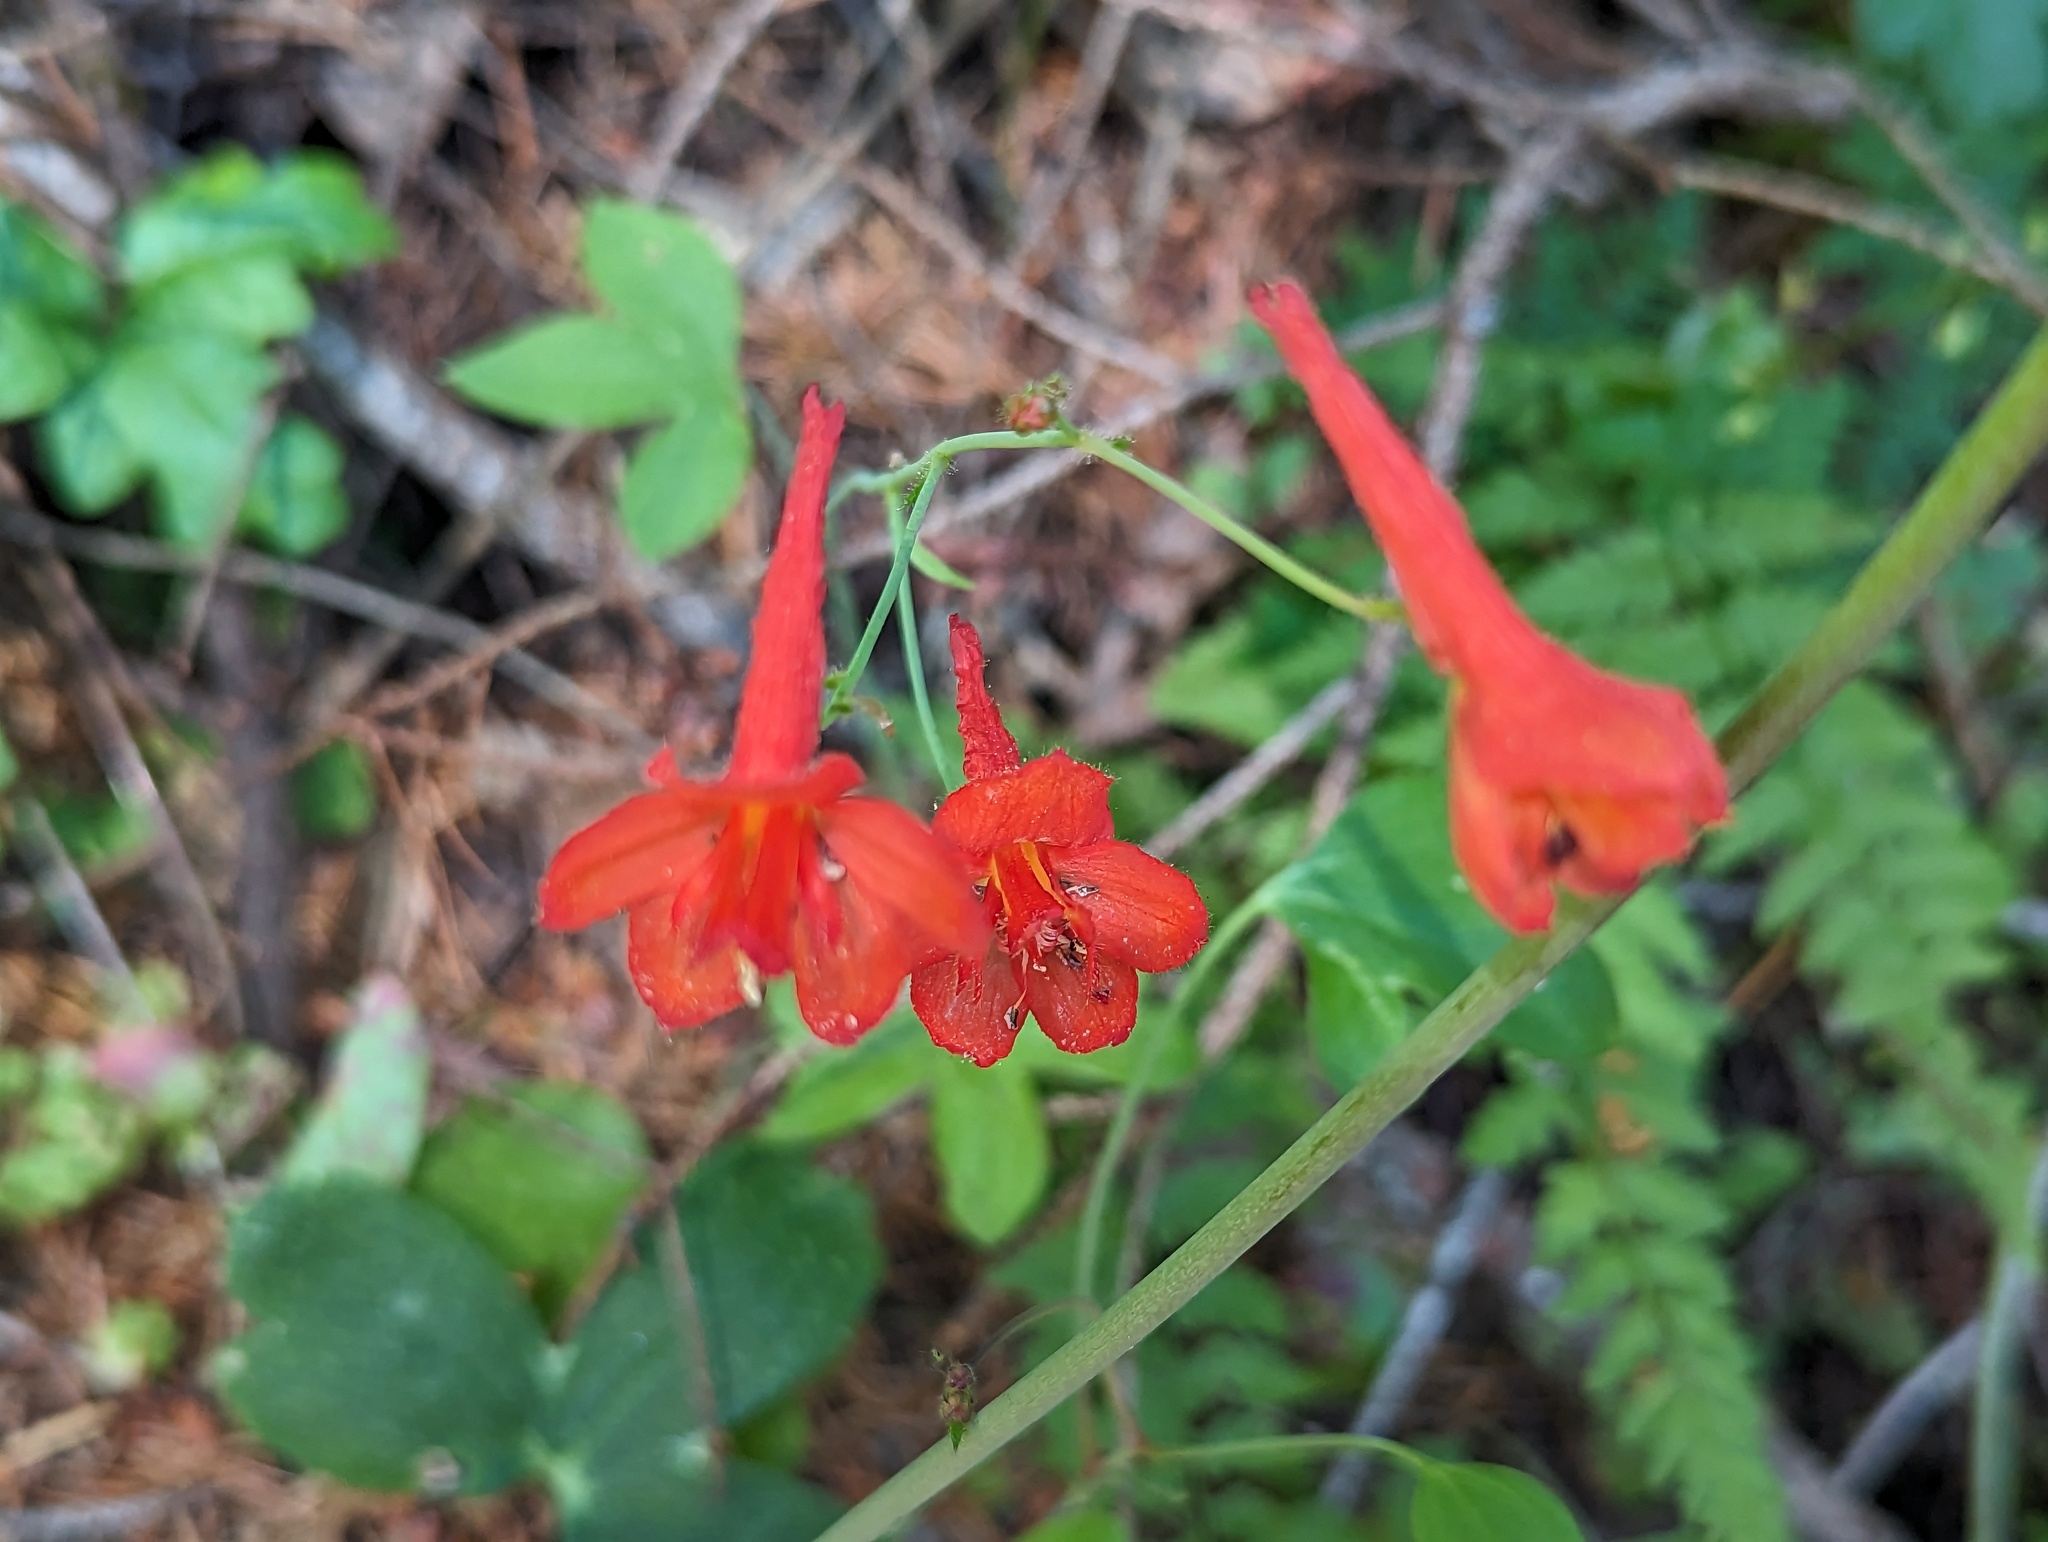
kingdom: Plantae
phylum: Tracheophyta
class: Magnoliopsida
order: Ranunculales
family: Ranunculaceae
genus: Delphinium
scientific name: Delphinium nudicaule
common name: Red larkspur
